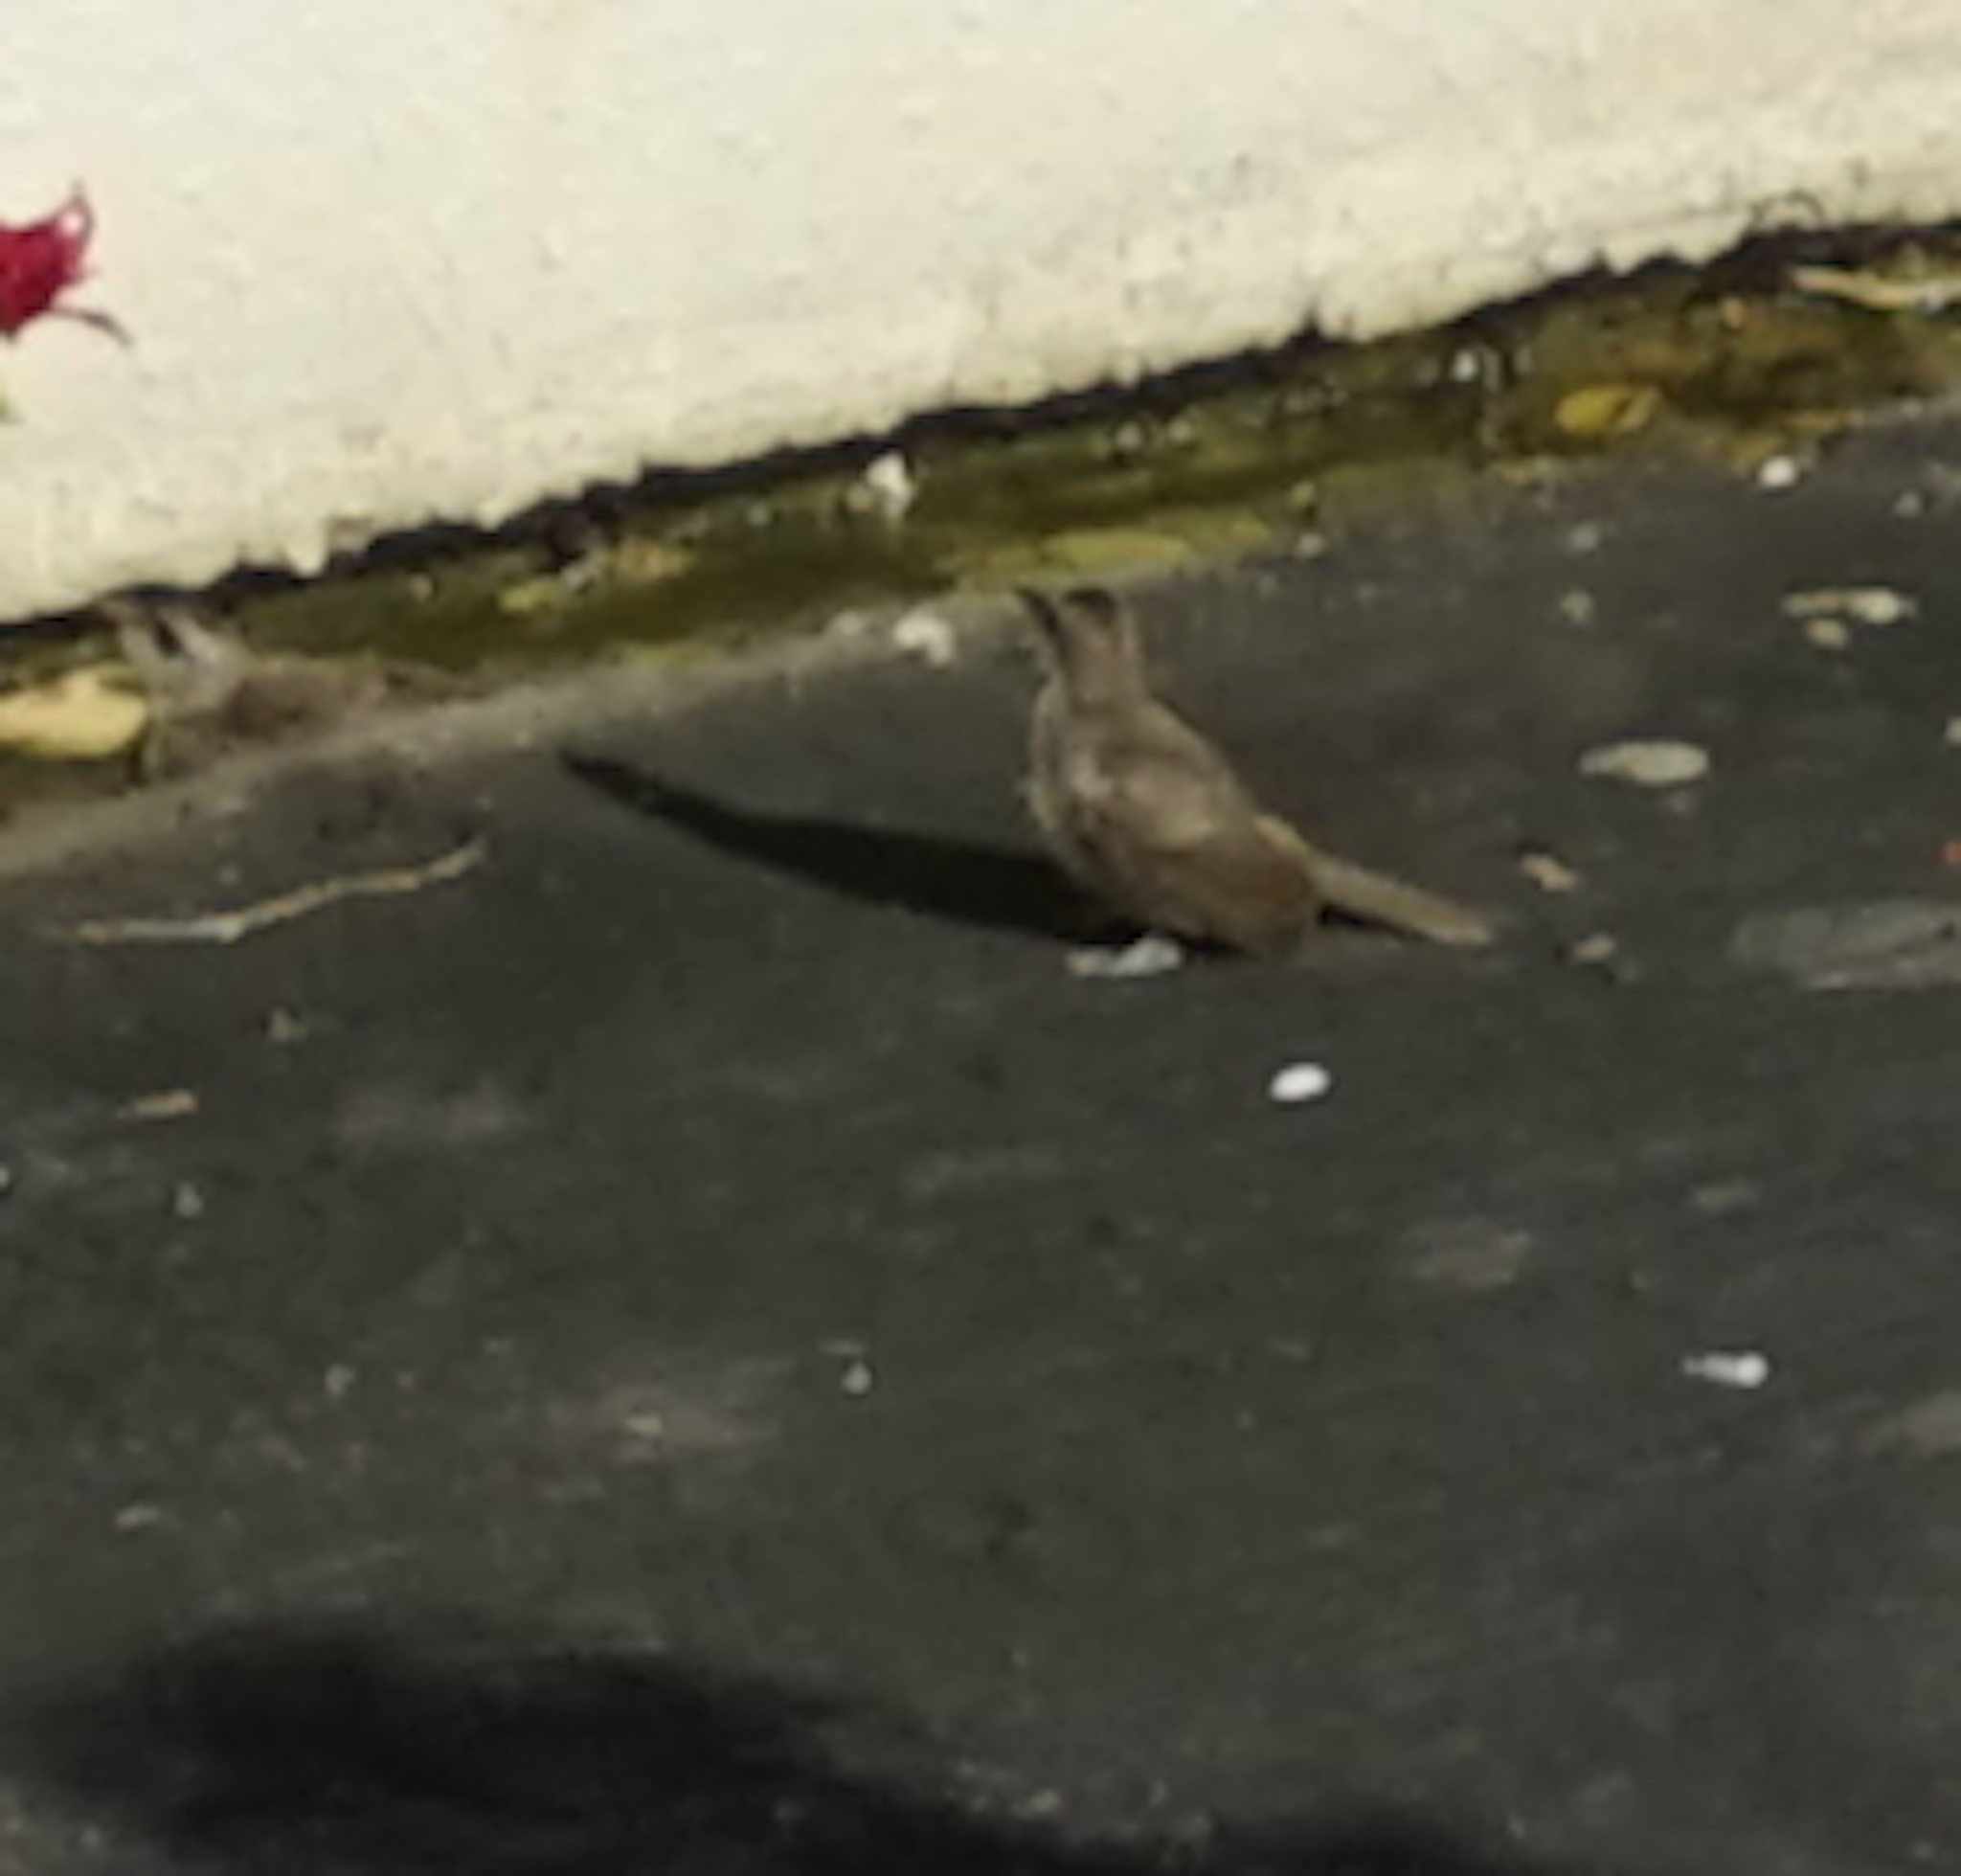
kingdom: Animalia
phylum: Chordata
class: Aves
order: Passeriformes
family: Pycnonotidae
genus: Pycnonotus
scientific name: Pycnonotus goiavier
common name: Yellow-vented bulbul
